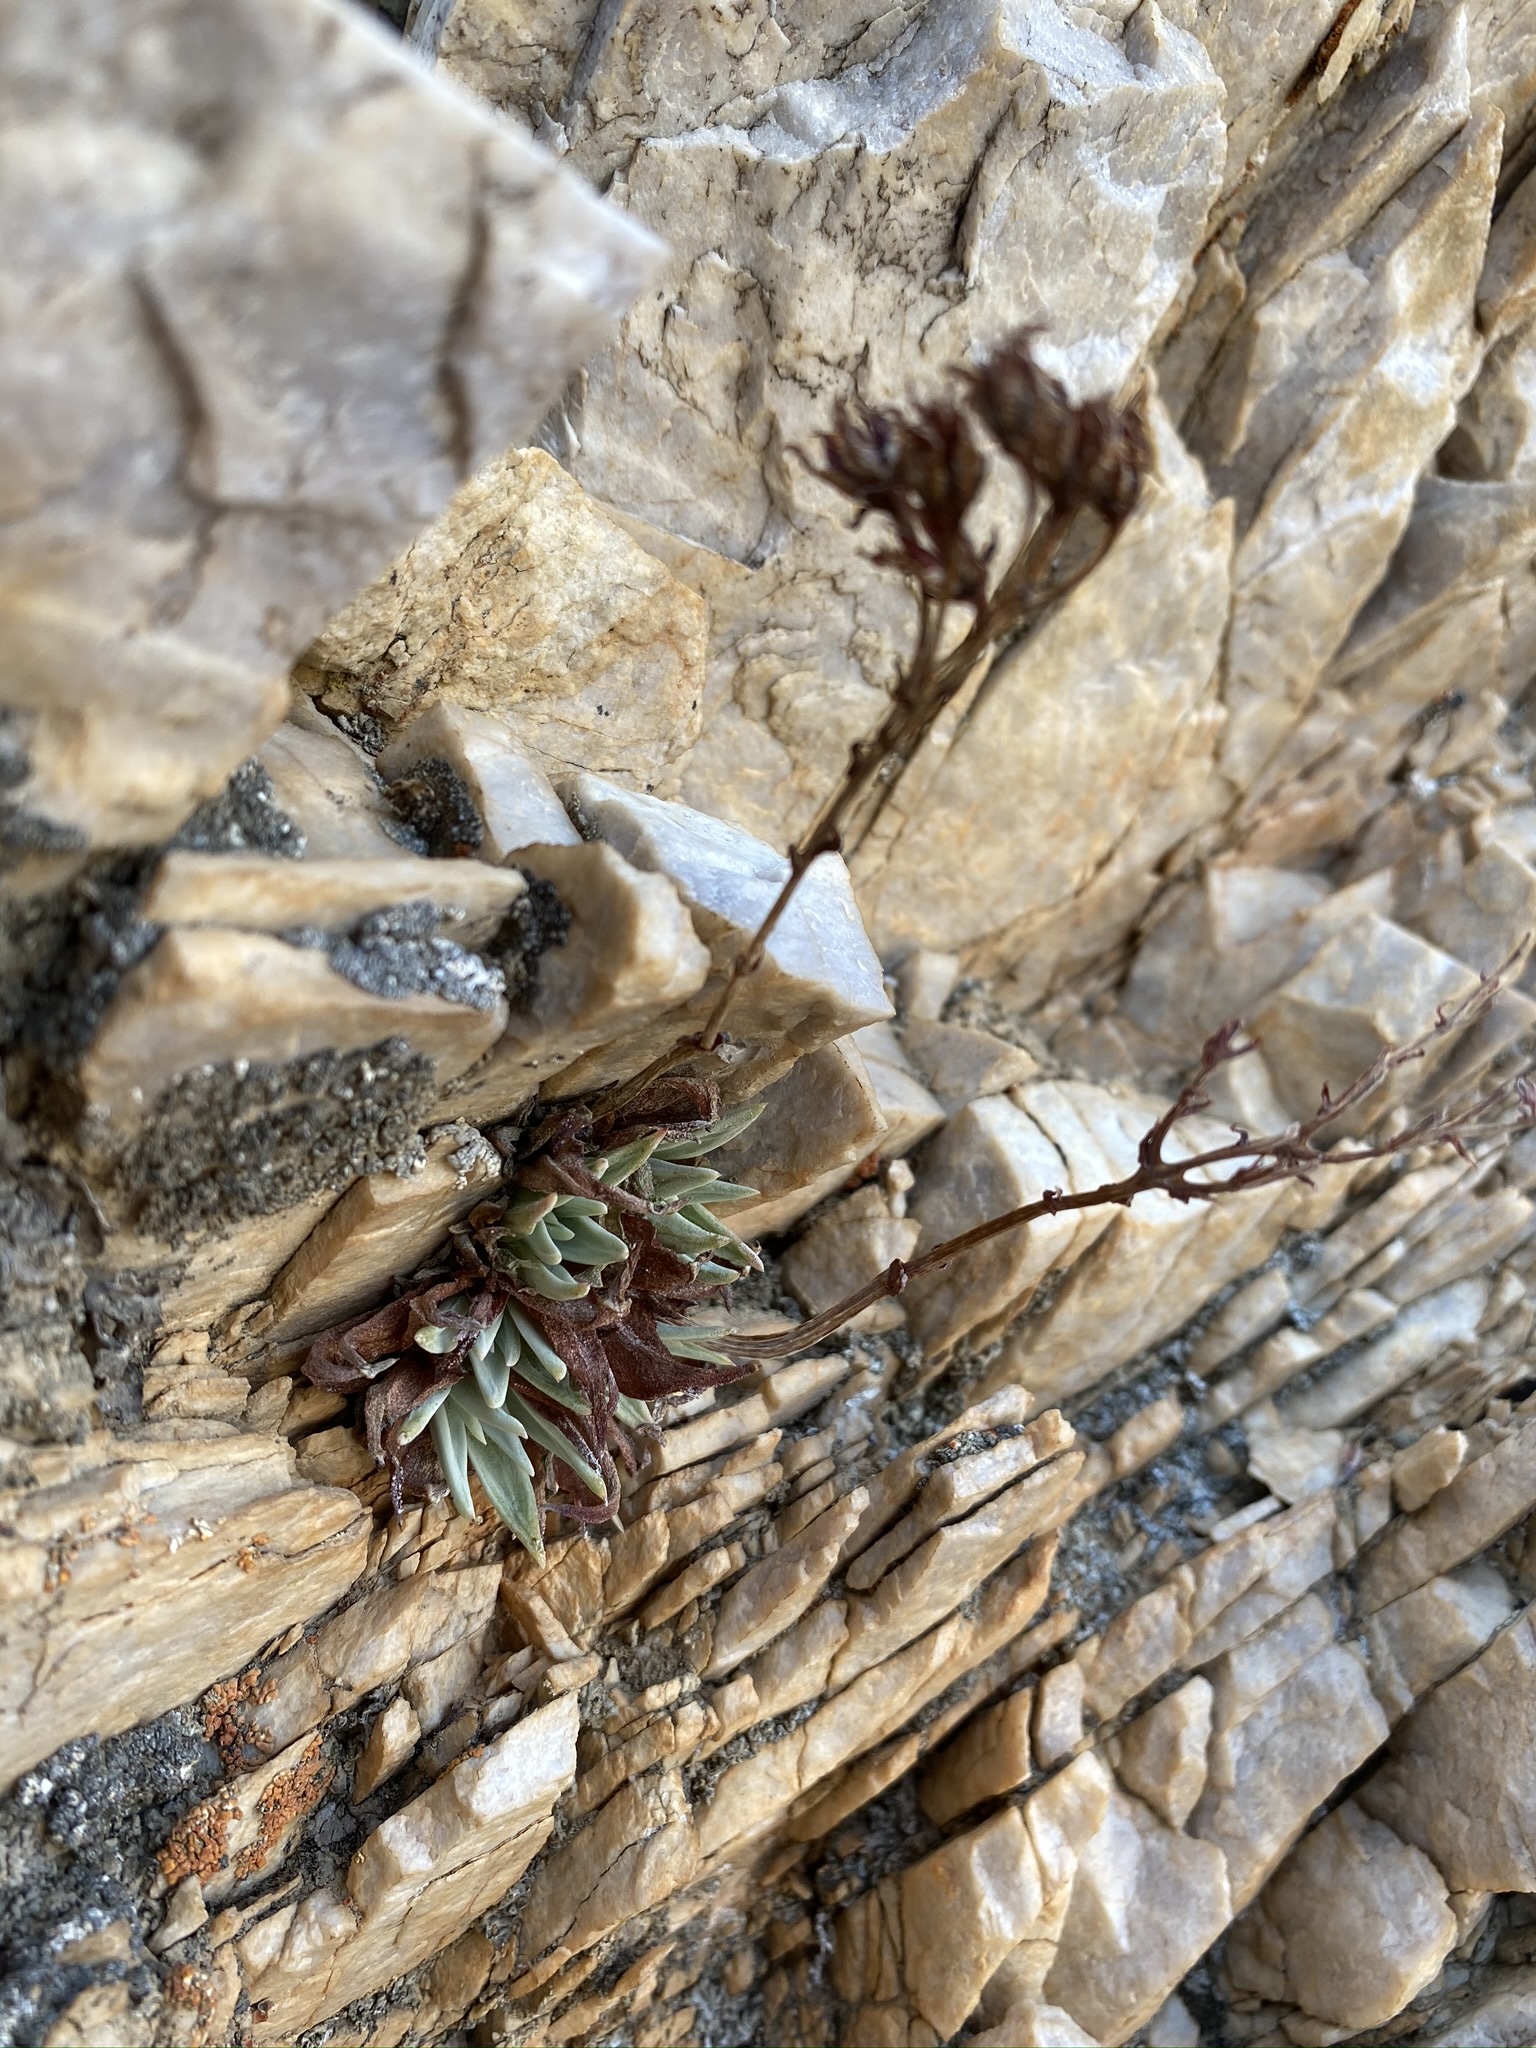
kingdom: Plantae
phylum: Tracheophyta
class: Magnoliopsida
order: Saxifragales
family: Crassulaceae
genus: Dudleya
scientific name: Dudleya saxosa
